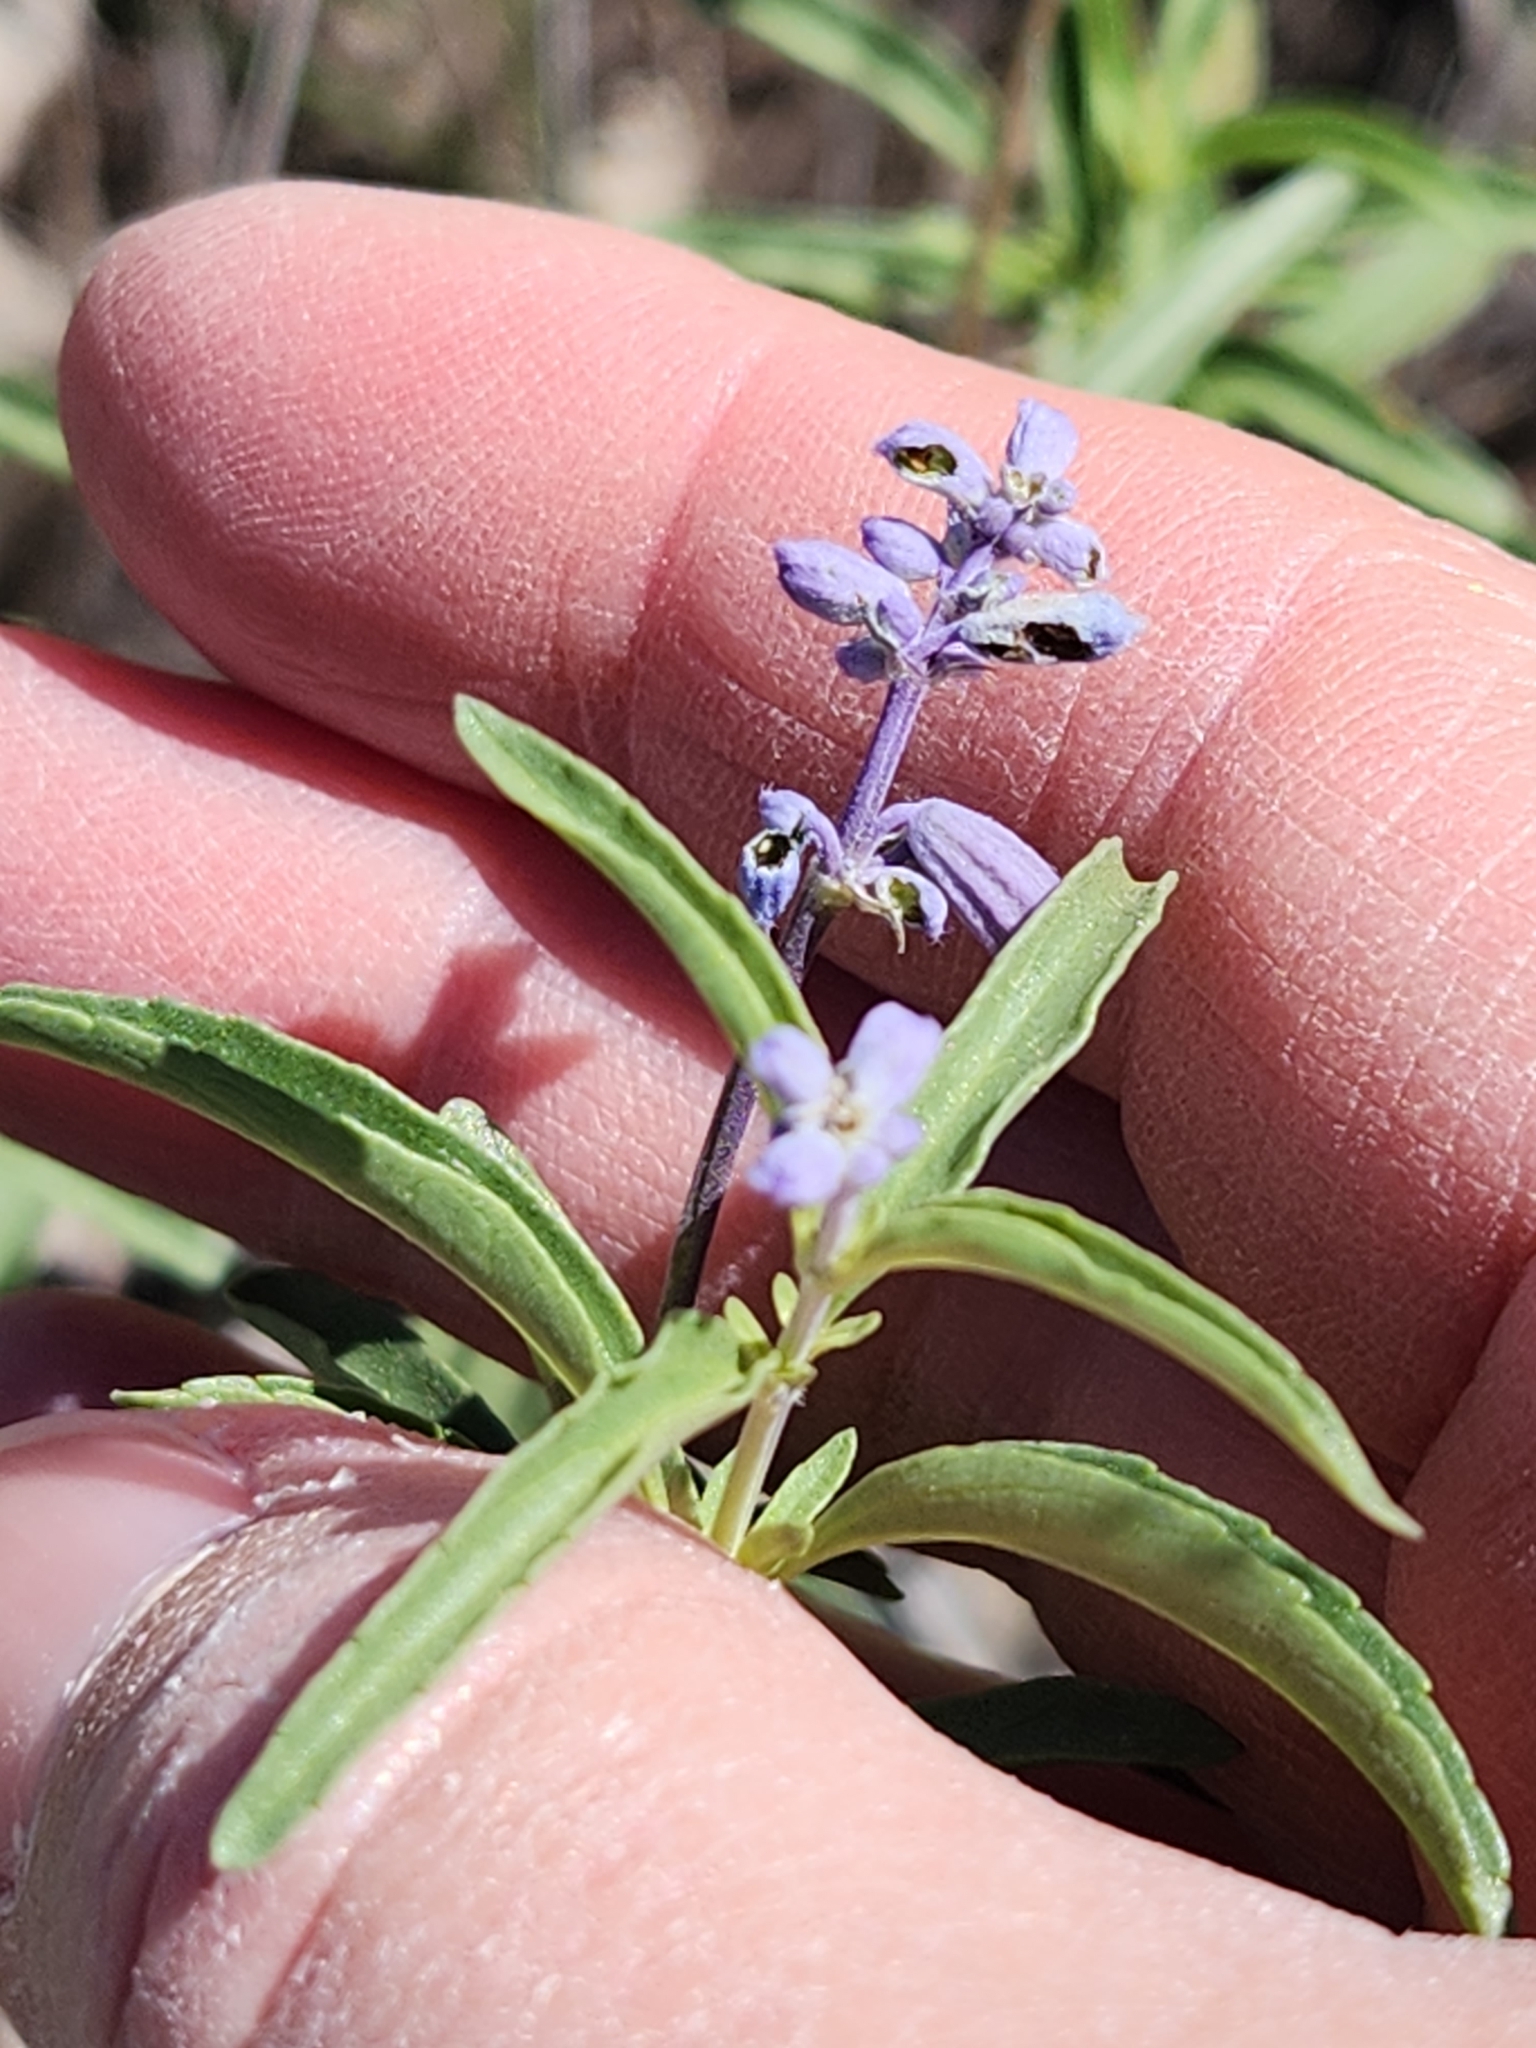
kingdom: Plantae
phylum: Tracheophyta
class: Magnoliopsida
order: Lamiales
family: Lamiaceae
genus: Salvia
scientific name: Salvia farinacea
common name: Mealy sage
